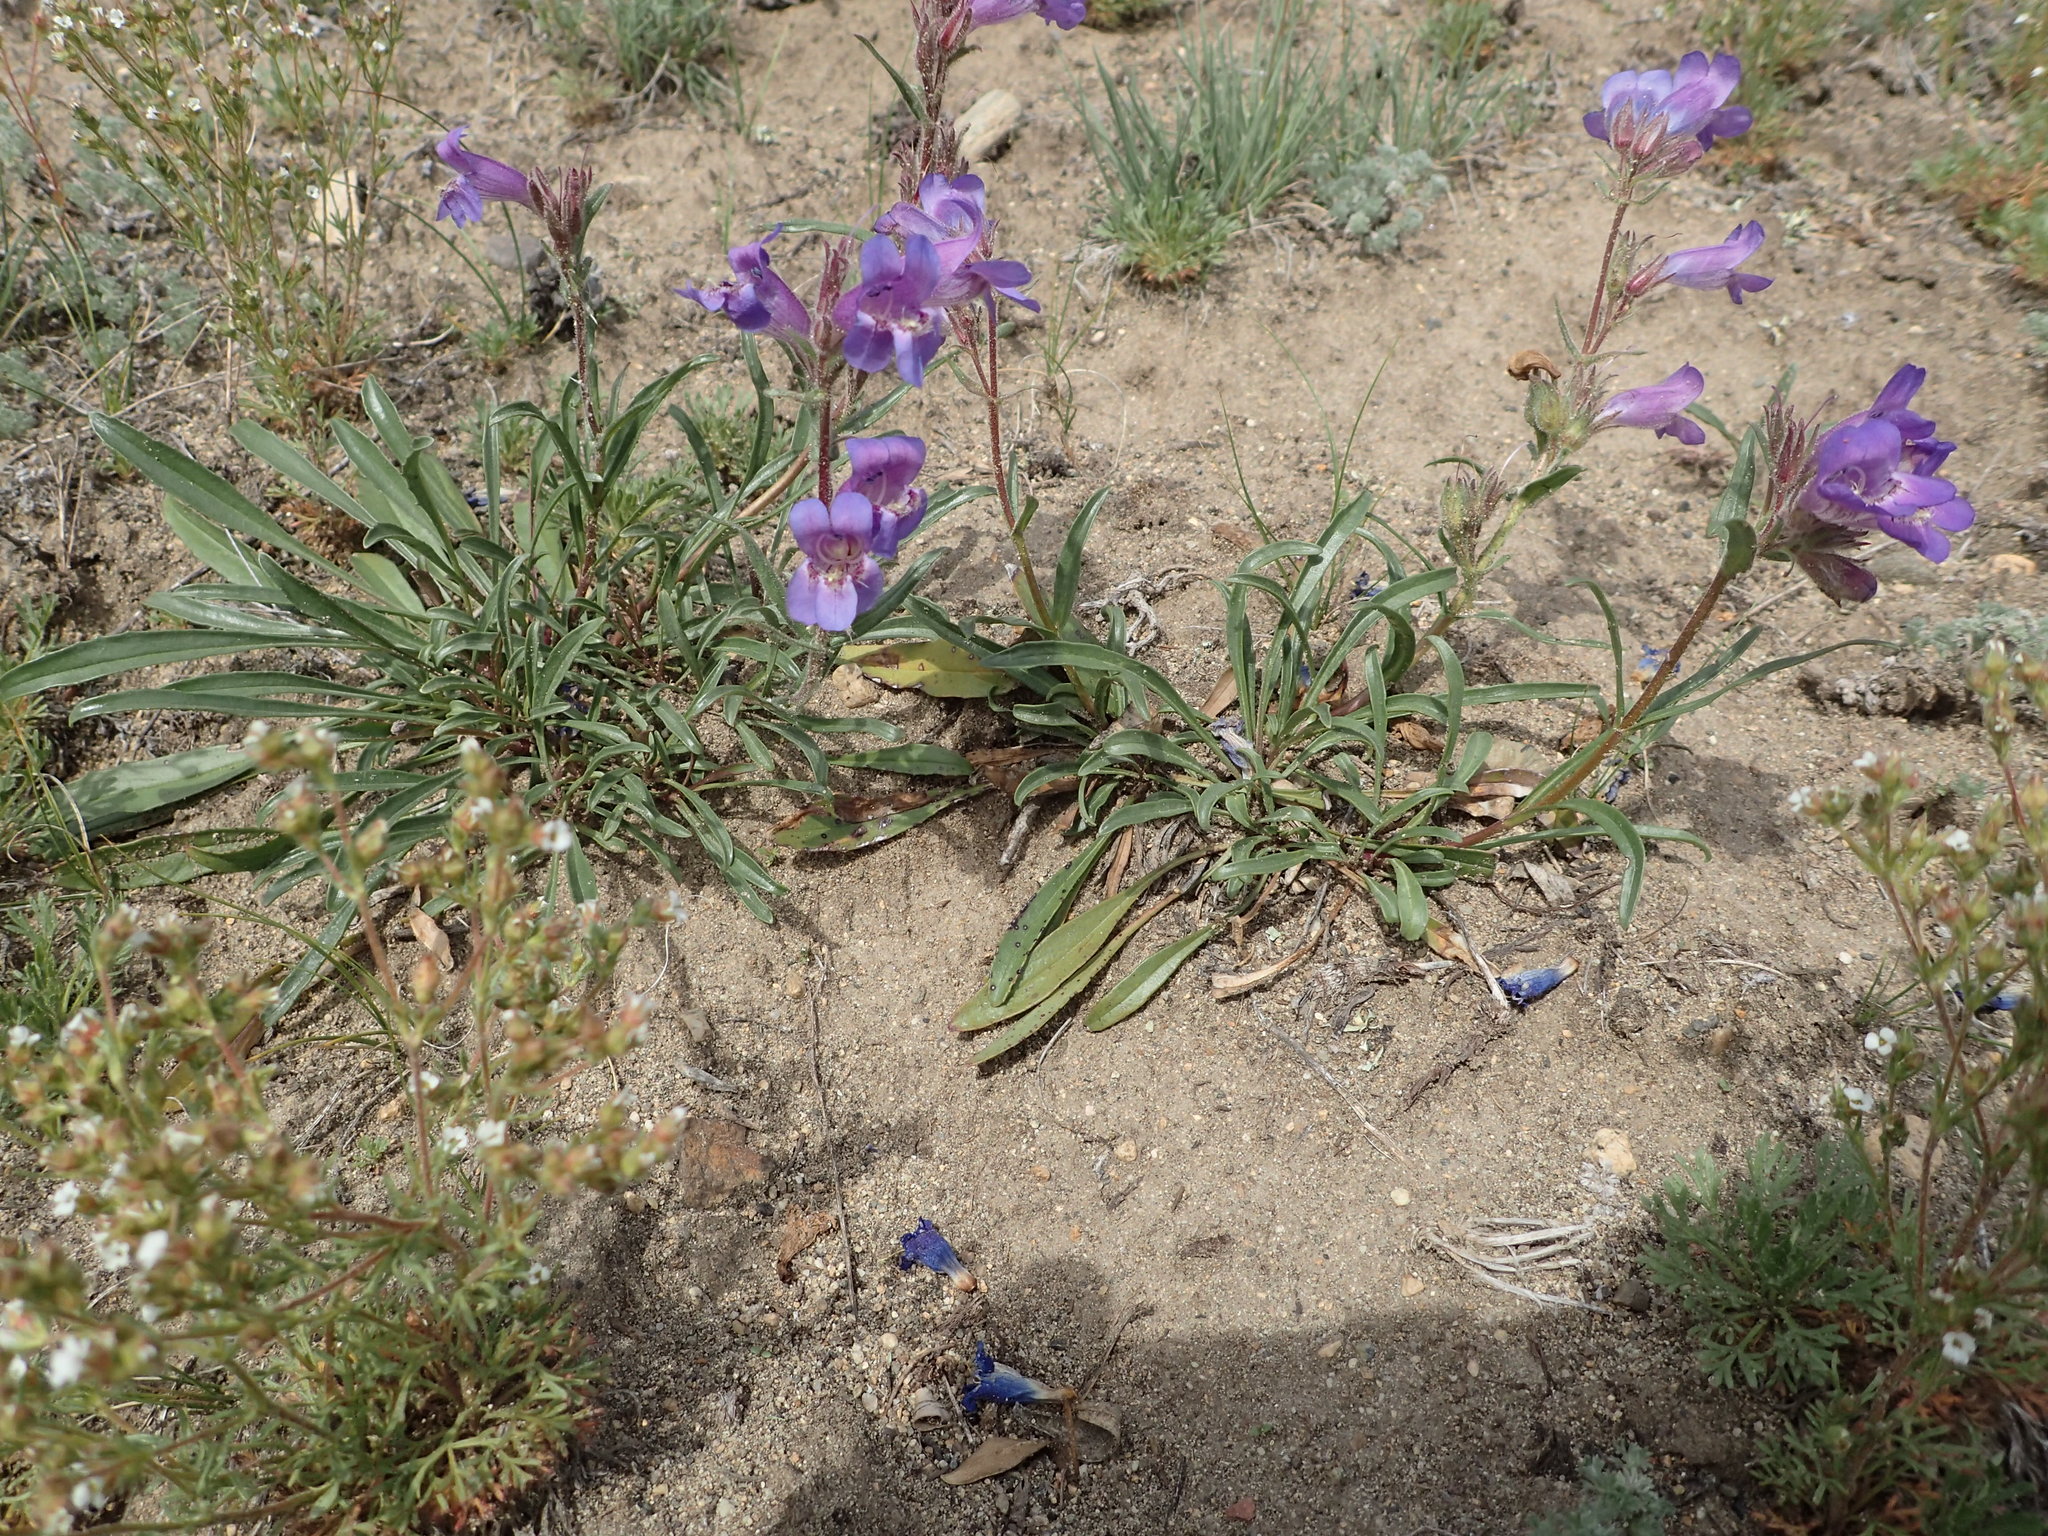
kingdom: Plantae
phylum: Tracheophyta
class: Magnoliopsida
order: Lamiales
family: Plantaginaceae
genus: Penstemon
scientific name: Penstemon gormanii
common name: Gorman's beardtongue
